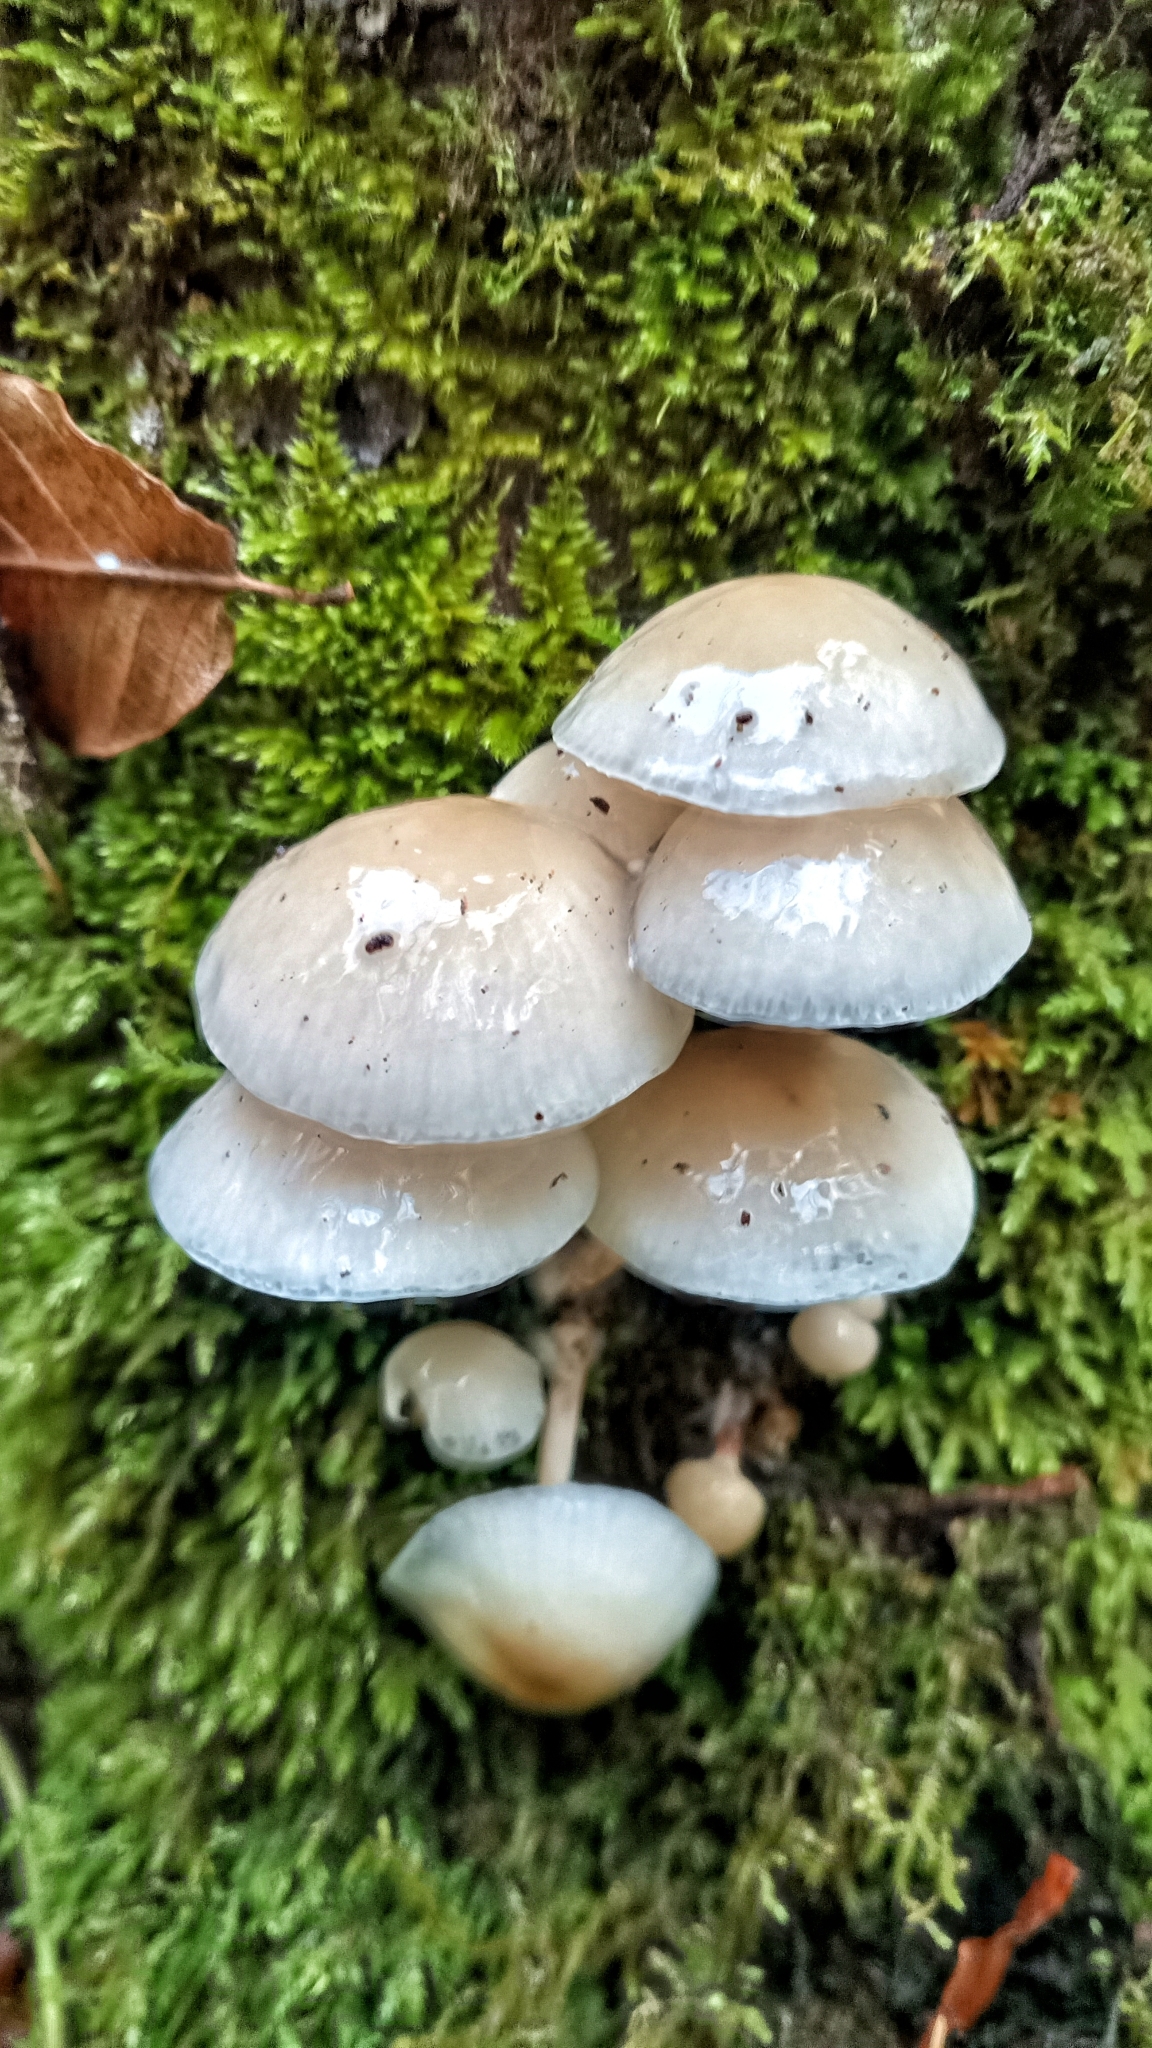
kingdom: Fungi
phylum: Basidiomycota
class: Agaricomycetes
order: Agaricales
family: Physalacriaceae
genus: Mucidula
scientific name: Mucidula mucida
